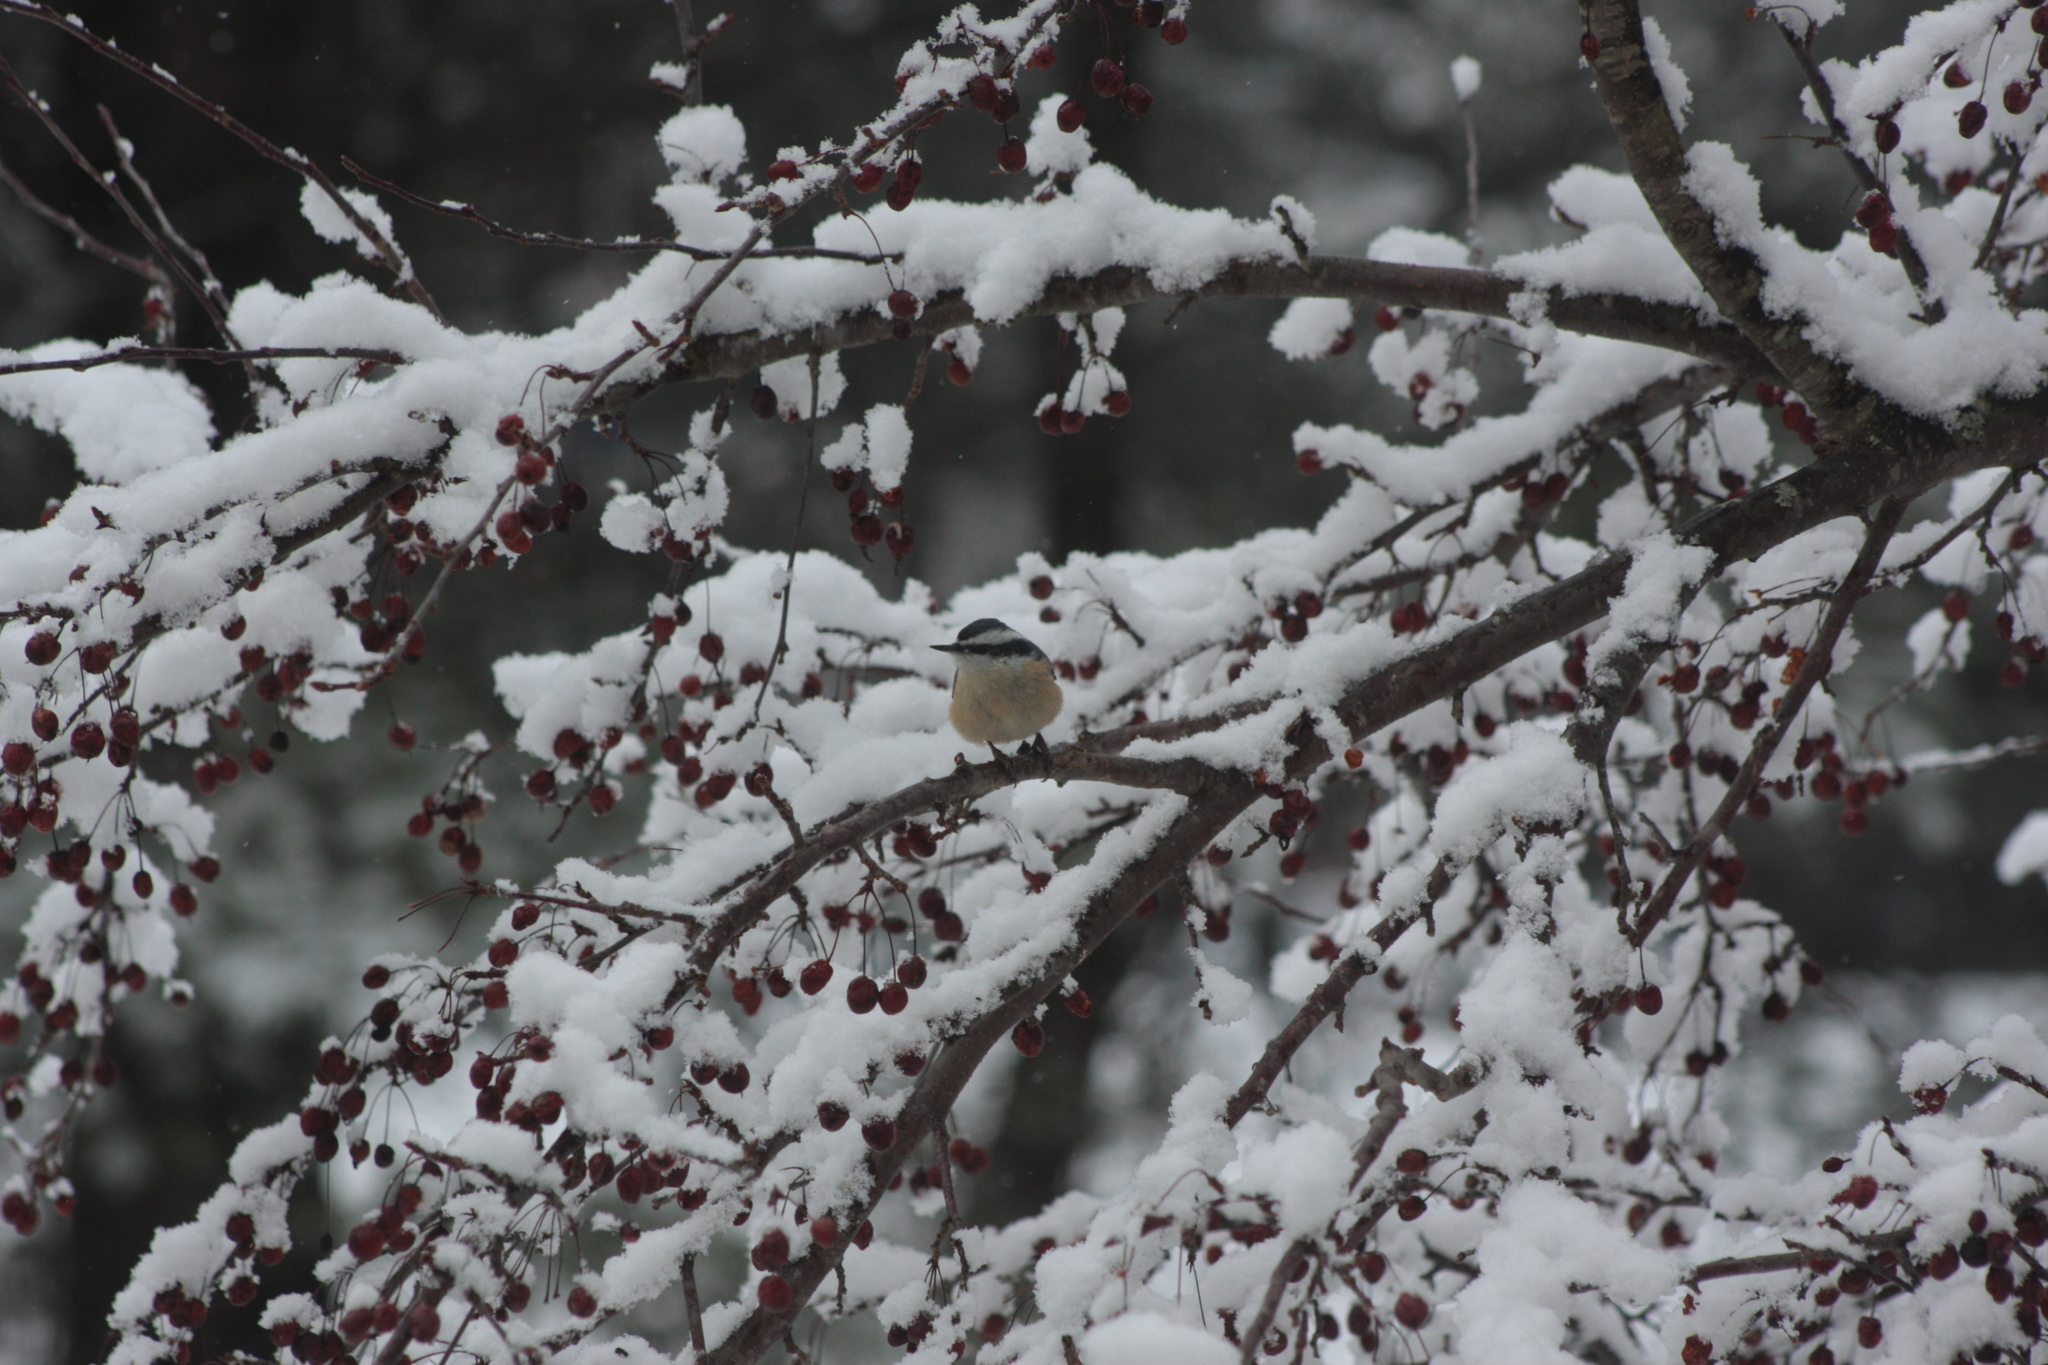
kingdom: Animalia
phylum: Chordata
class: Aves
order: Passeriformes
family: Sittidae
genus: Sitta
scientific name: Sitta canadensis
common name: Red-breasted nuthatch
